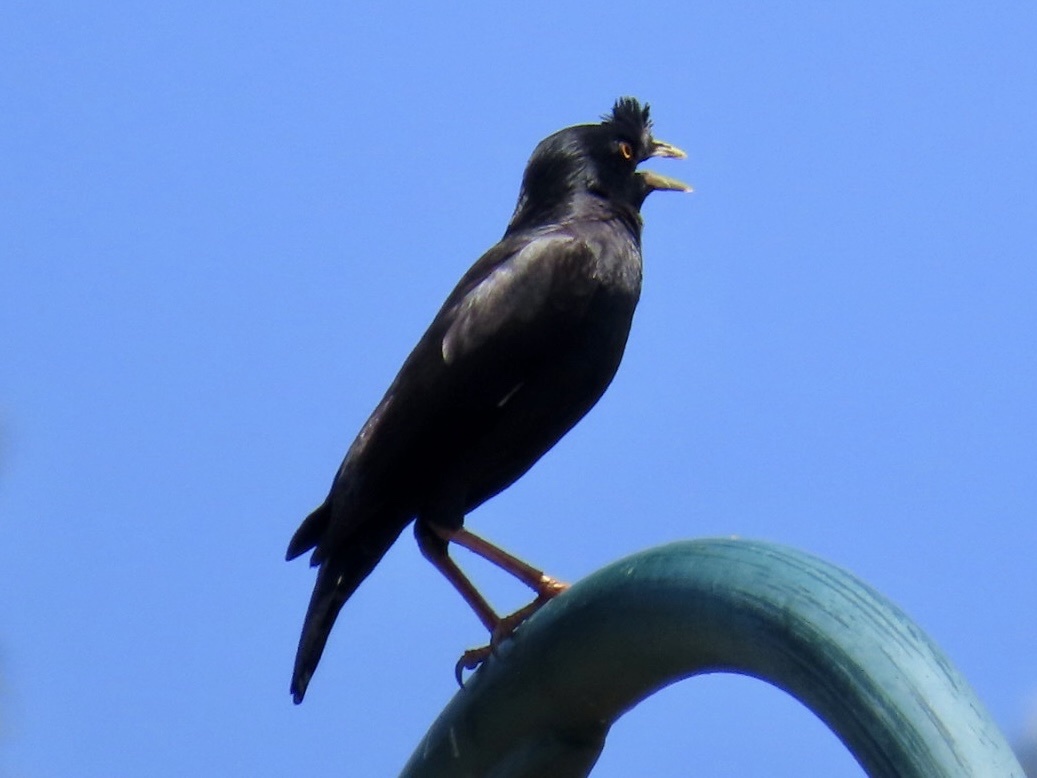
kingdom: Animalia
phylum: Chordata
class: Aves
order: Passeriformes
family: Sturnidae
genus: Acridotheres
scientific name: Acridotheres cristatellus
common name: Crested myna
